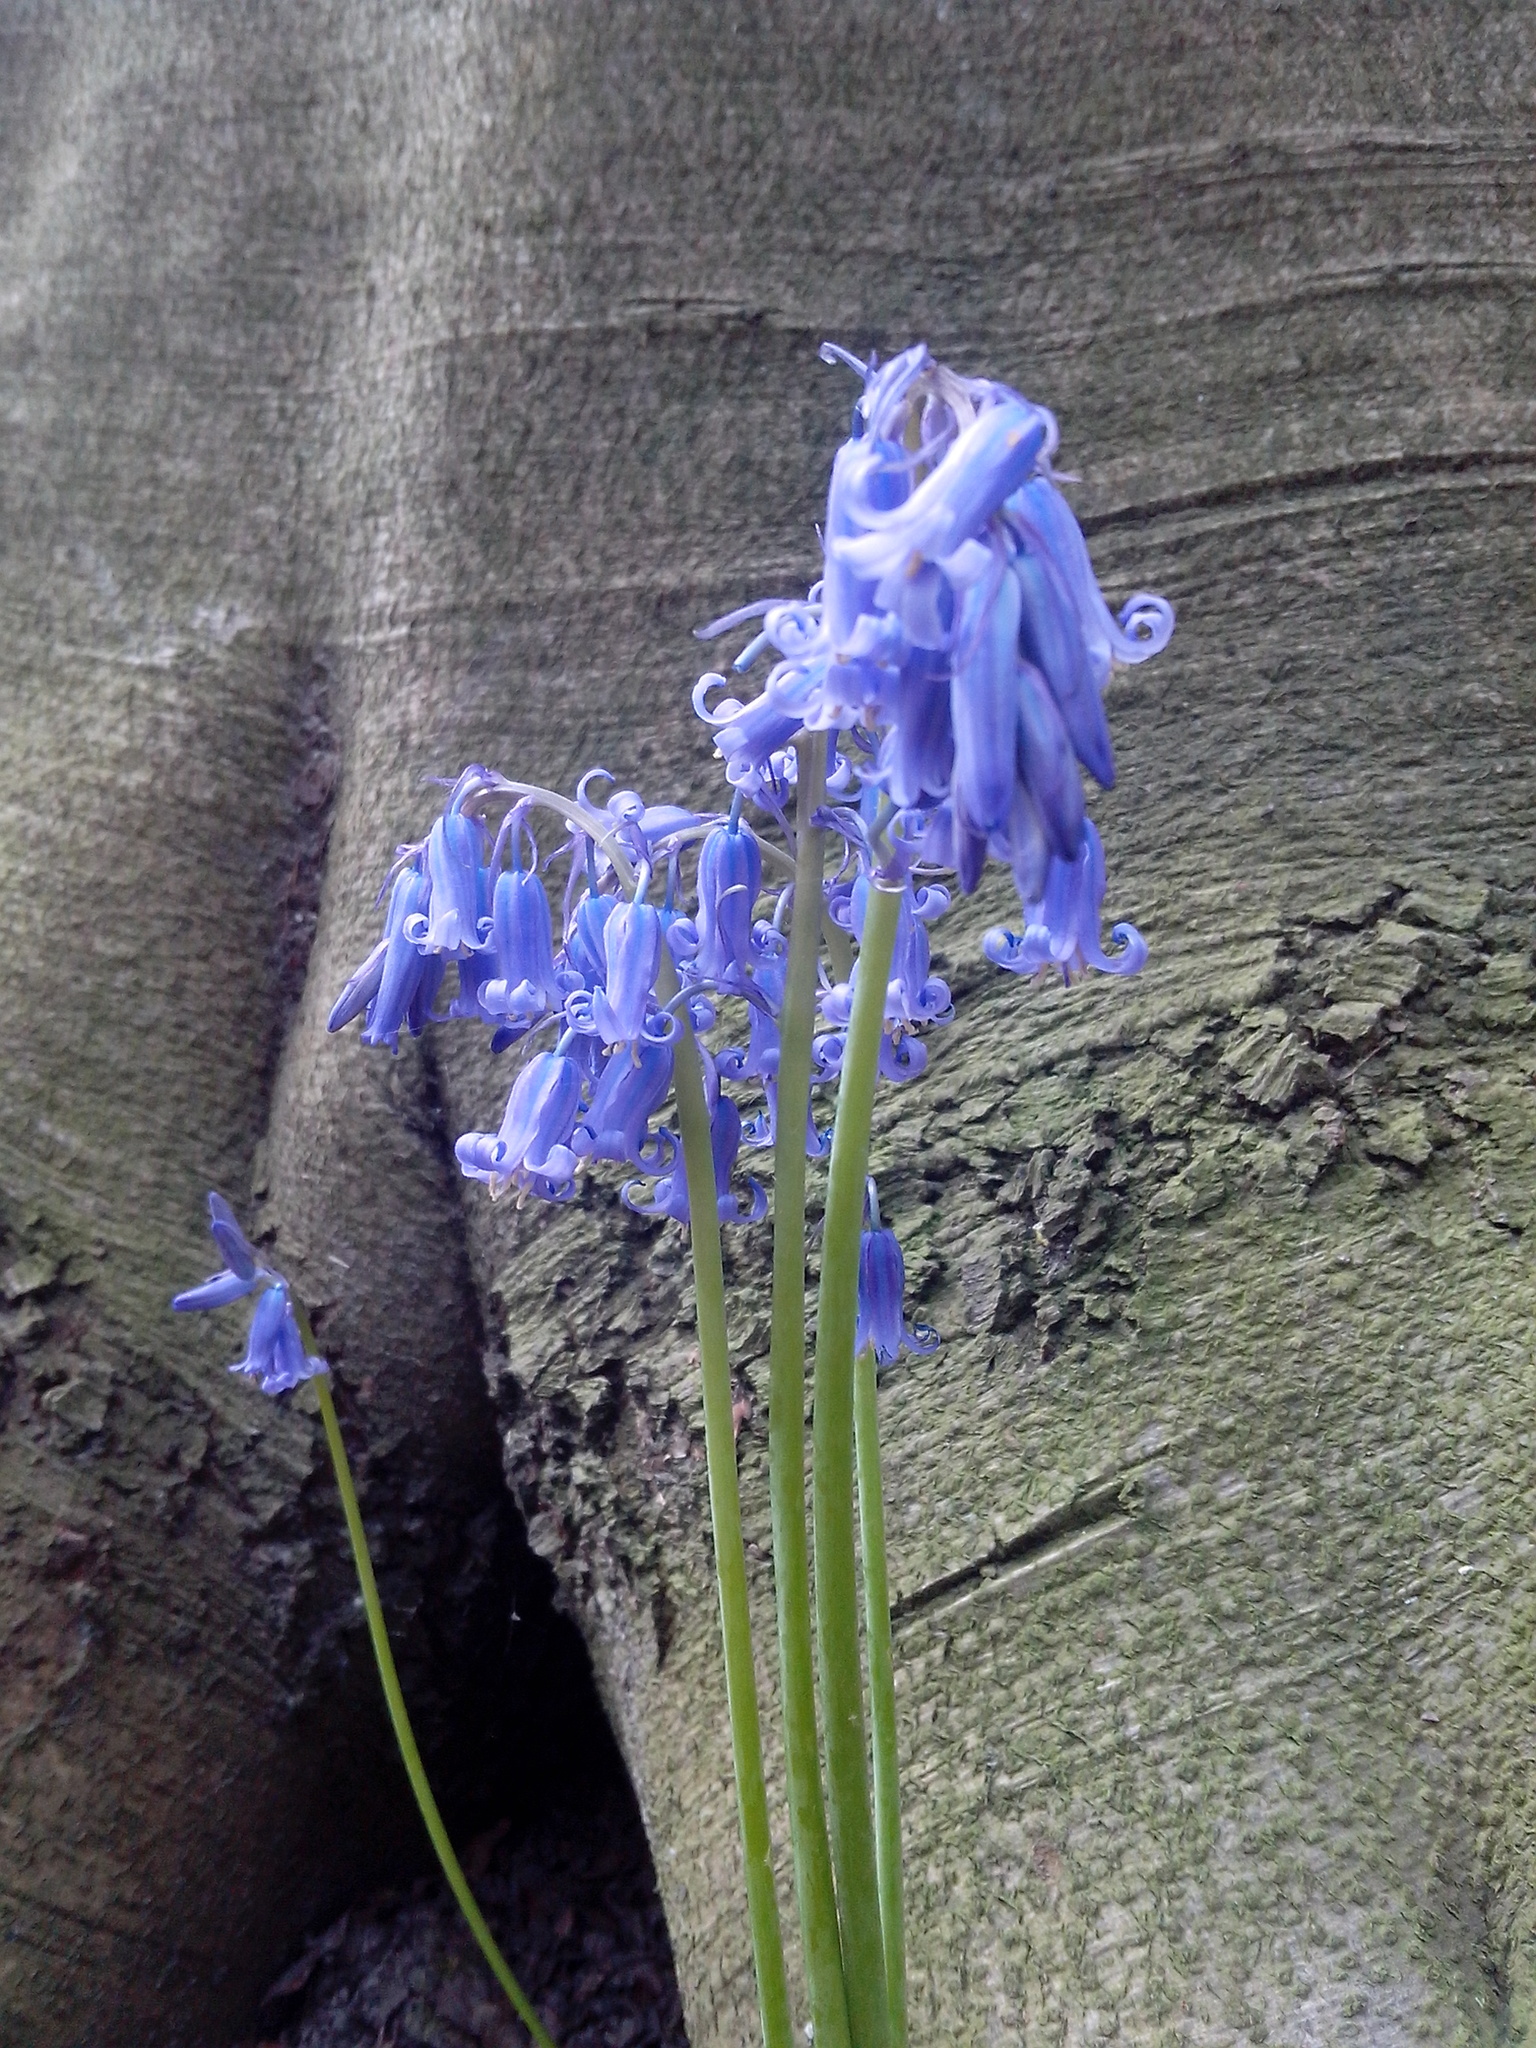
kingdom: Plantae
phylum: Tracheophyta
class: Liliopsida
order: Asparagales
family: Asparagaceae
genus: Hyacinthoides
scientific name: Hyacinthoides non-scripta
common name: Bluebell
